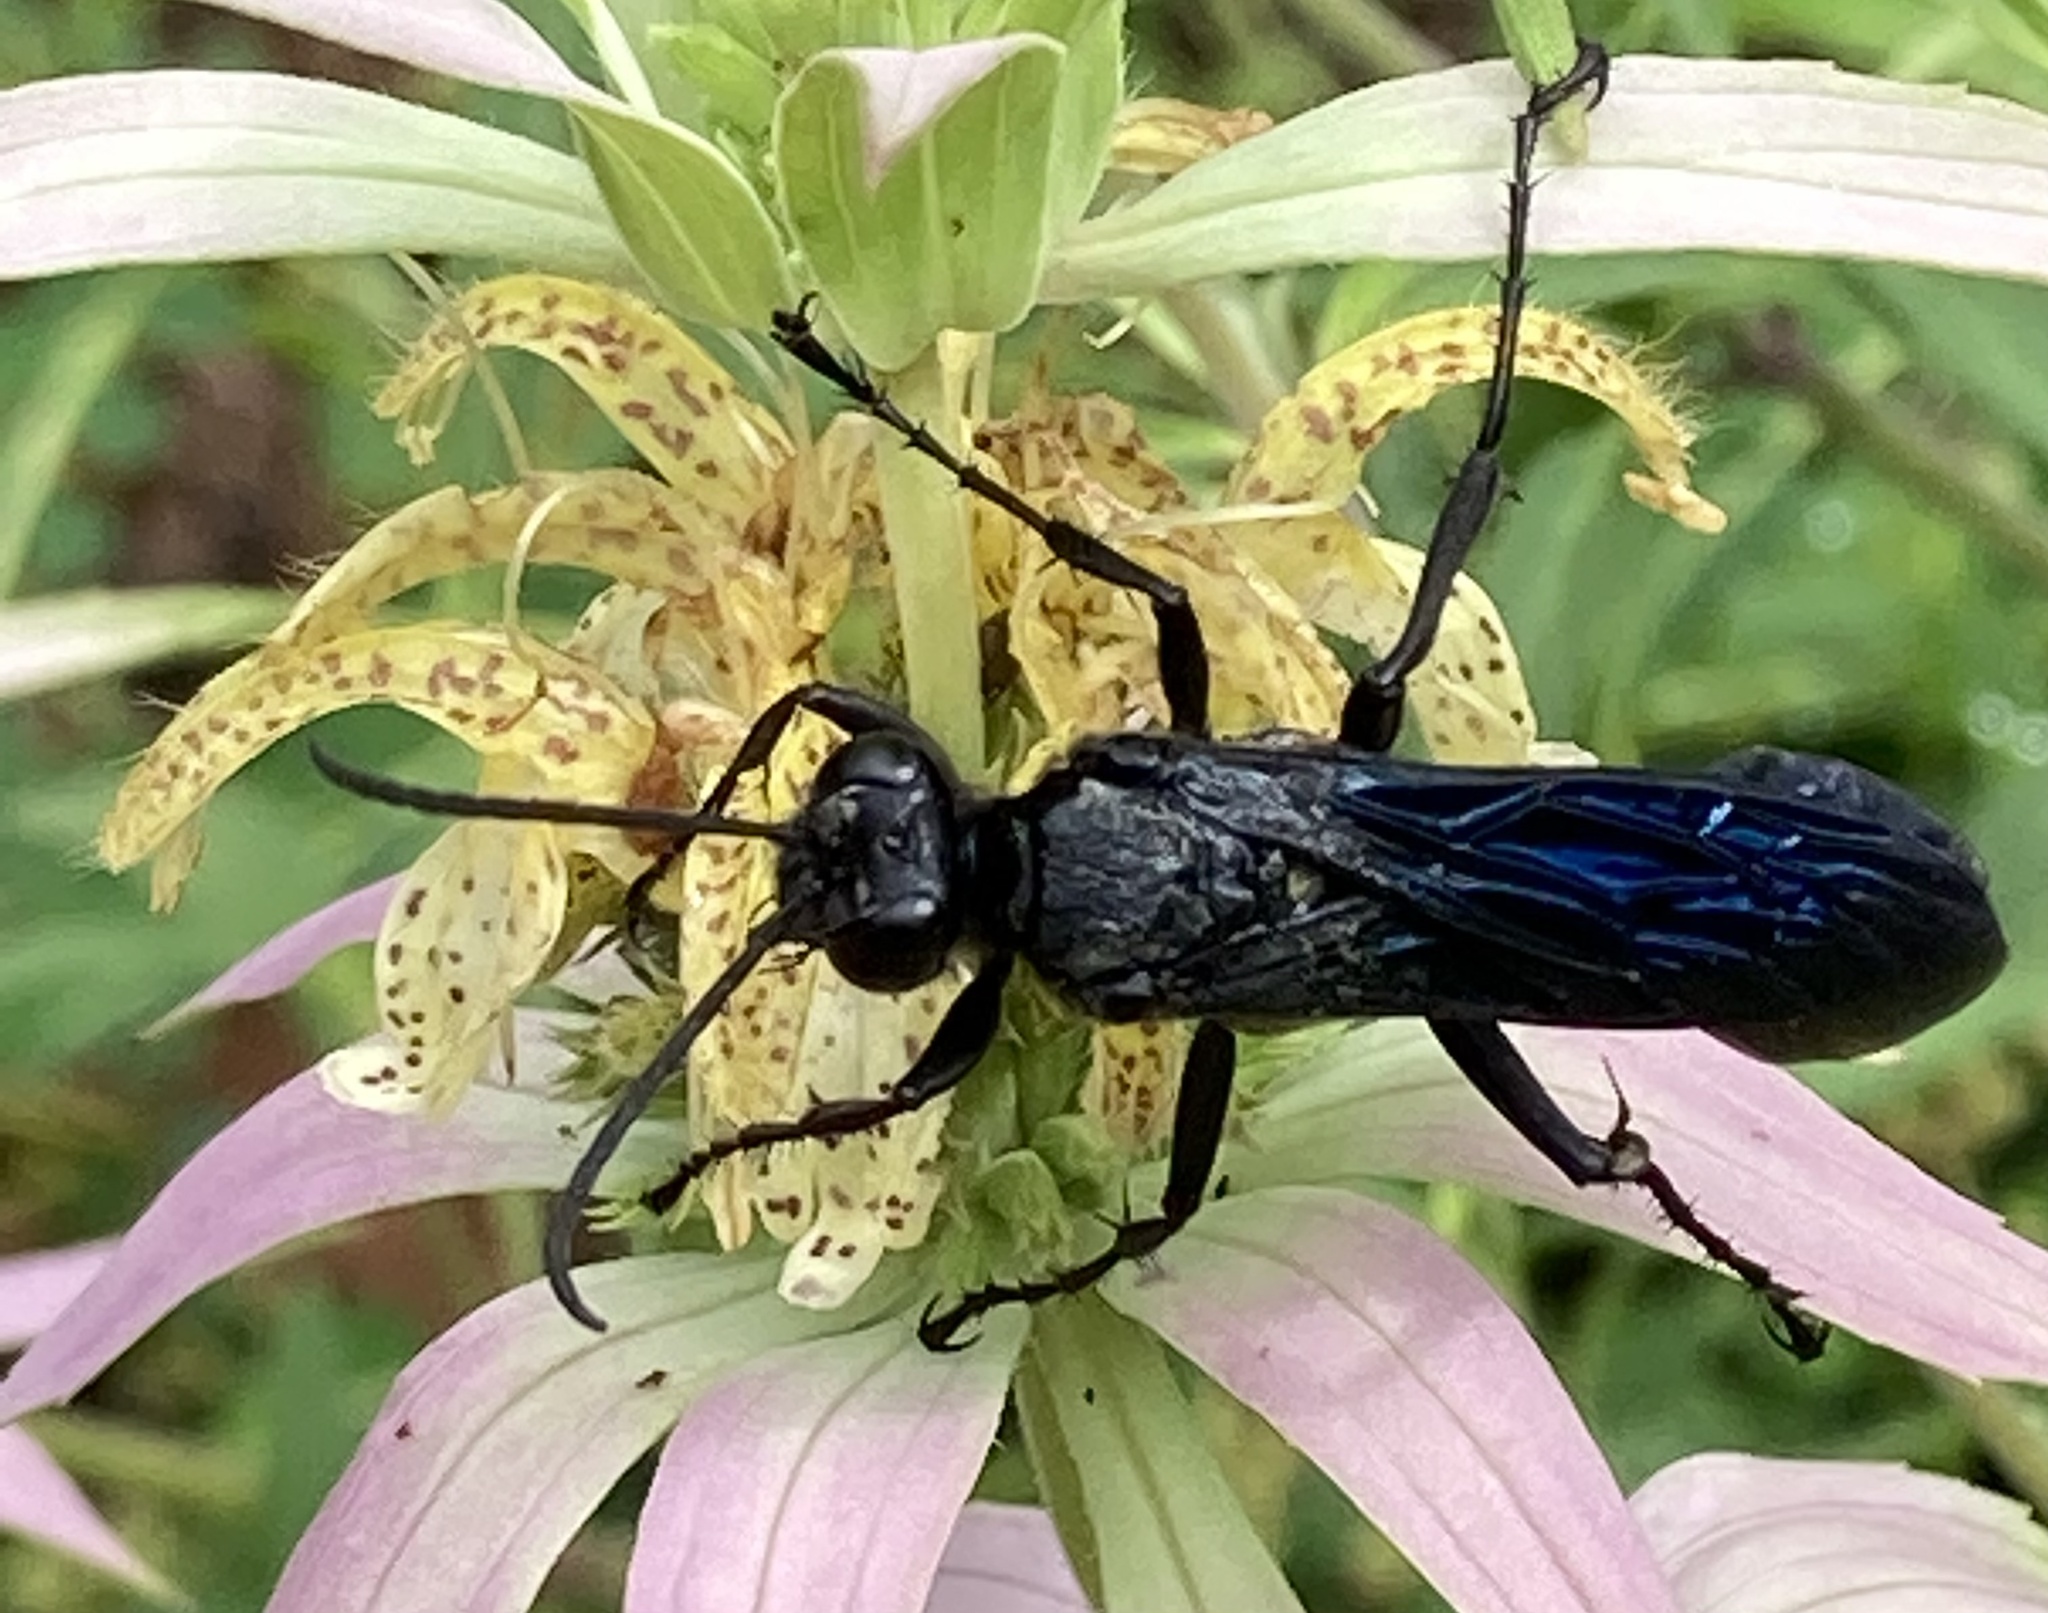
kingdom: Animalia
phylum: Arthropoda
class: Insecta
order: Hymenoptera
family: Sphecidae
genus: Sphex
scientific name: Sphex pensylvanicus
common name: Great black digger wasp
